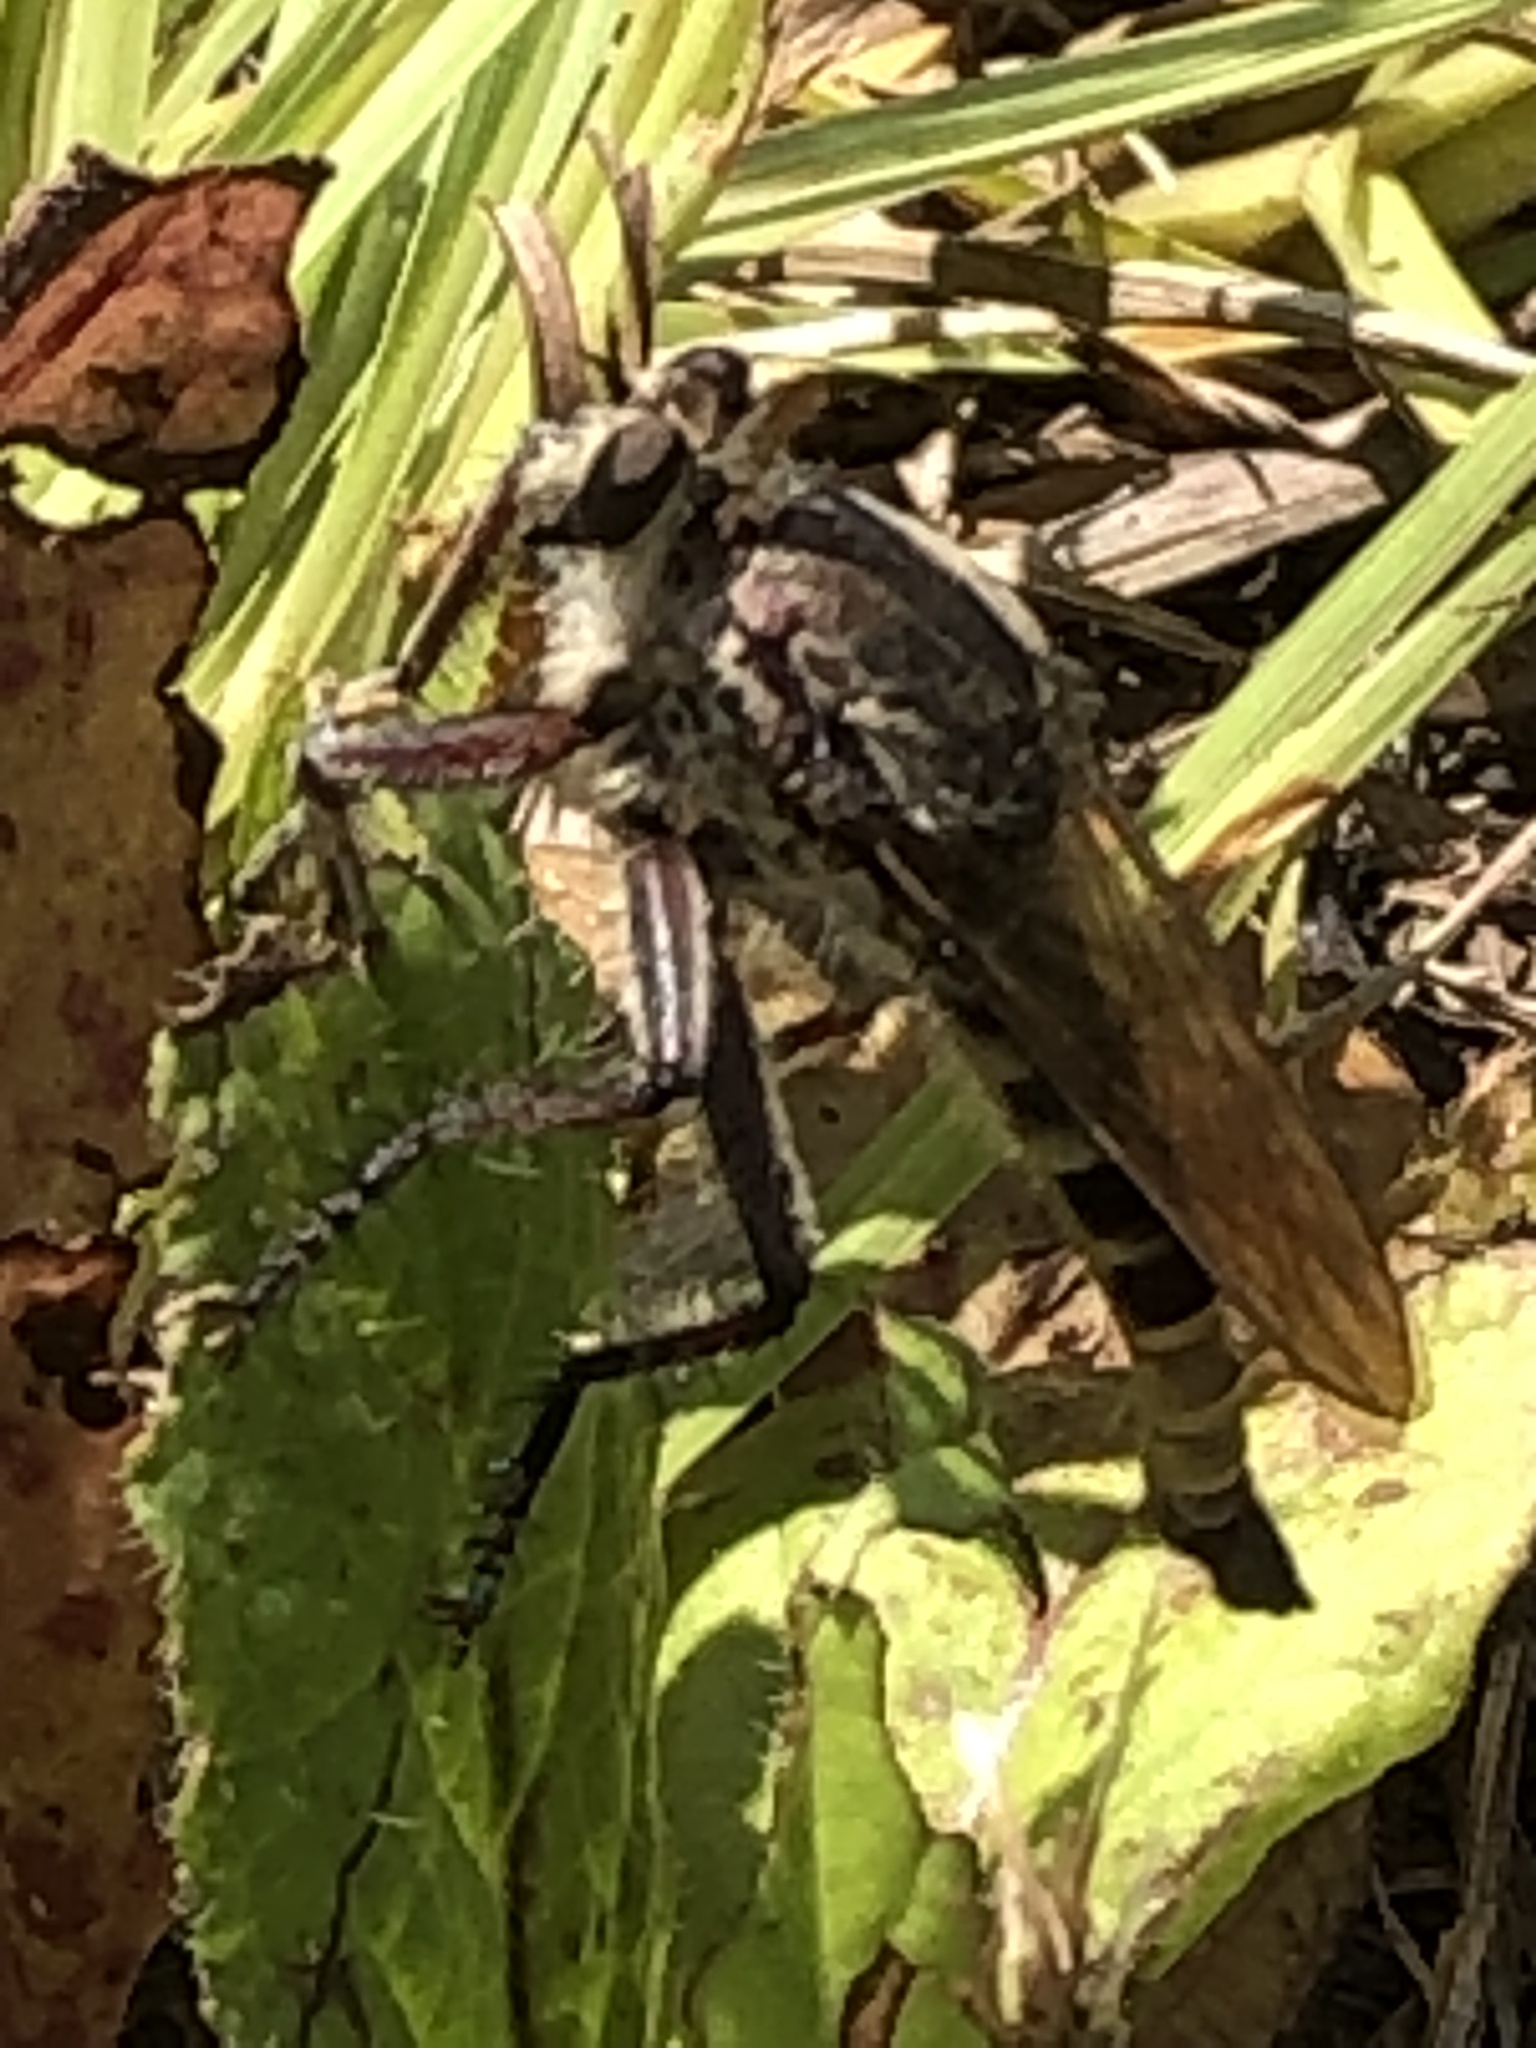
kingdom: Animalia
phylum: Arthropoda
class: Insecta
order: Diptera
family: Asilidae
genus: Triorla
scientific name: Triorla interrupta
